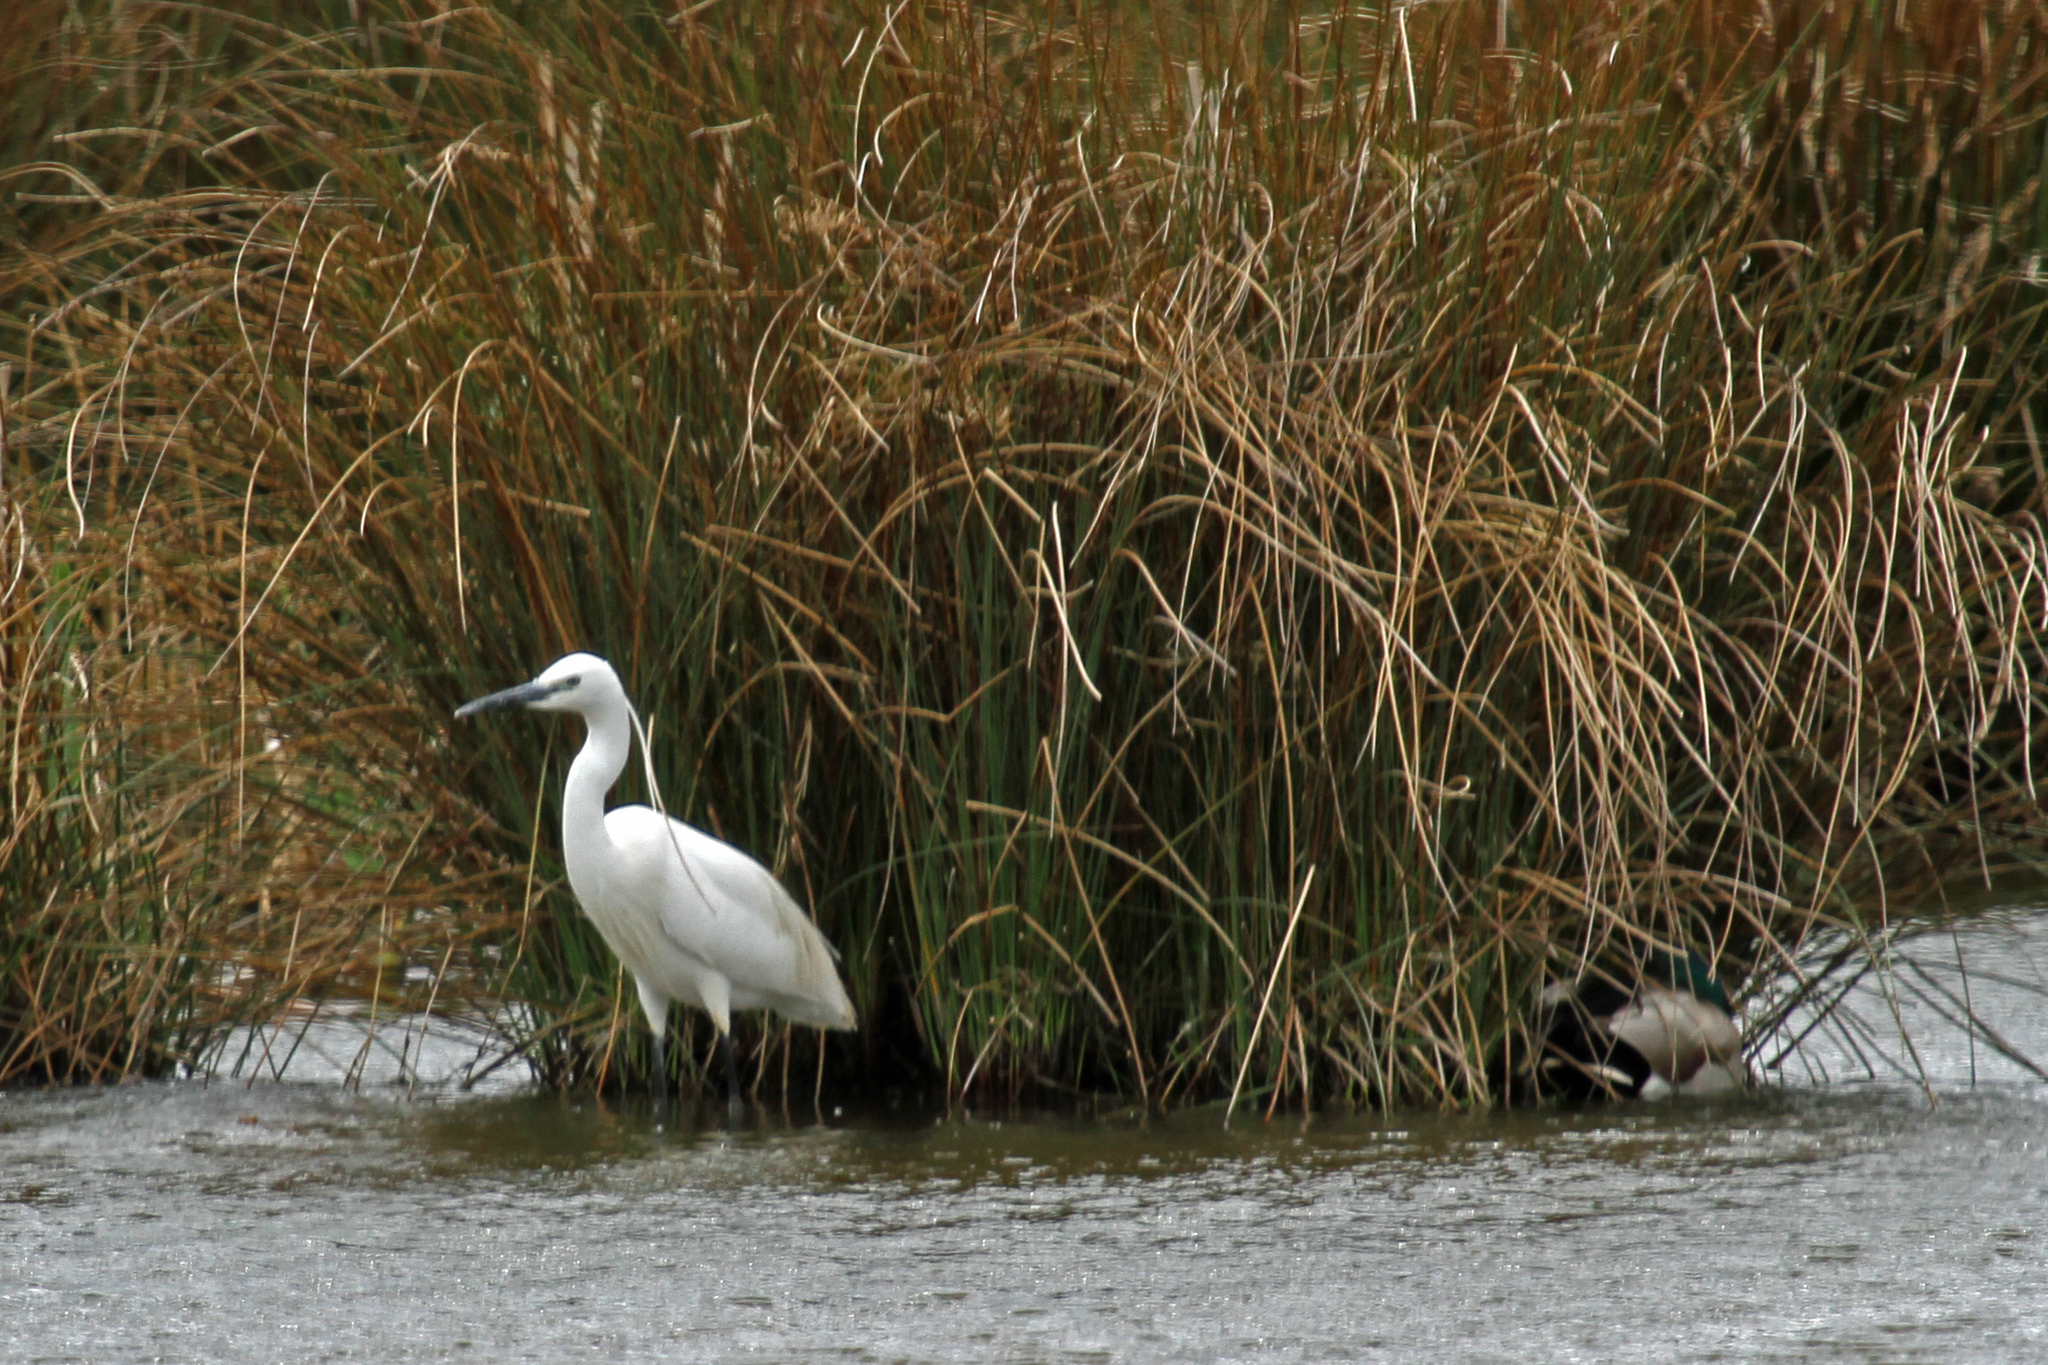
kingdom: Animalia
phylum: Chordata
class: Aves
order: Pelecaniformes
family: Ardeidae
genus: Egretta
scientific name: Egretta garzetta
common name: Little egret
